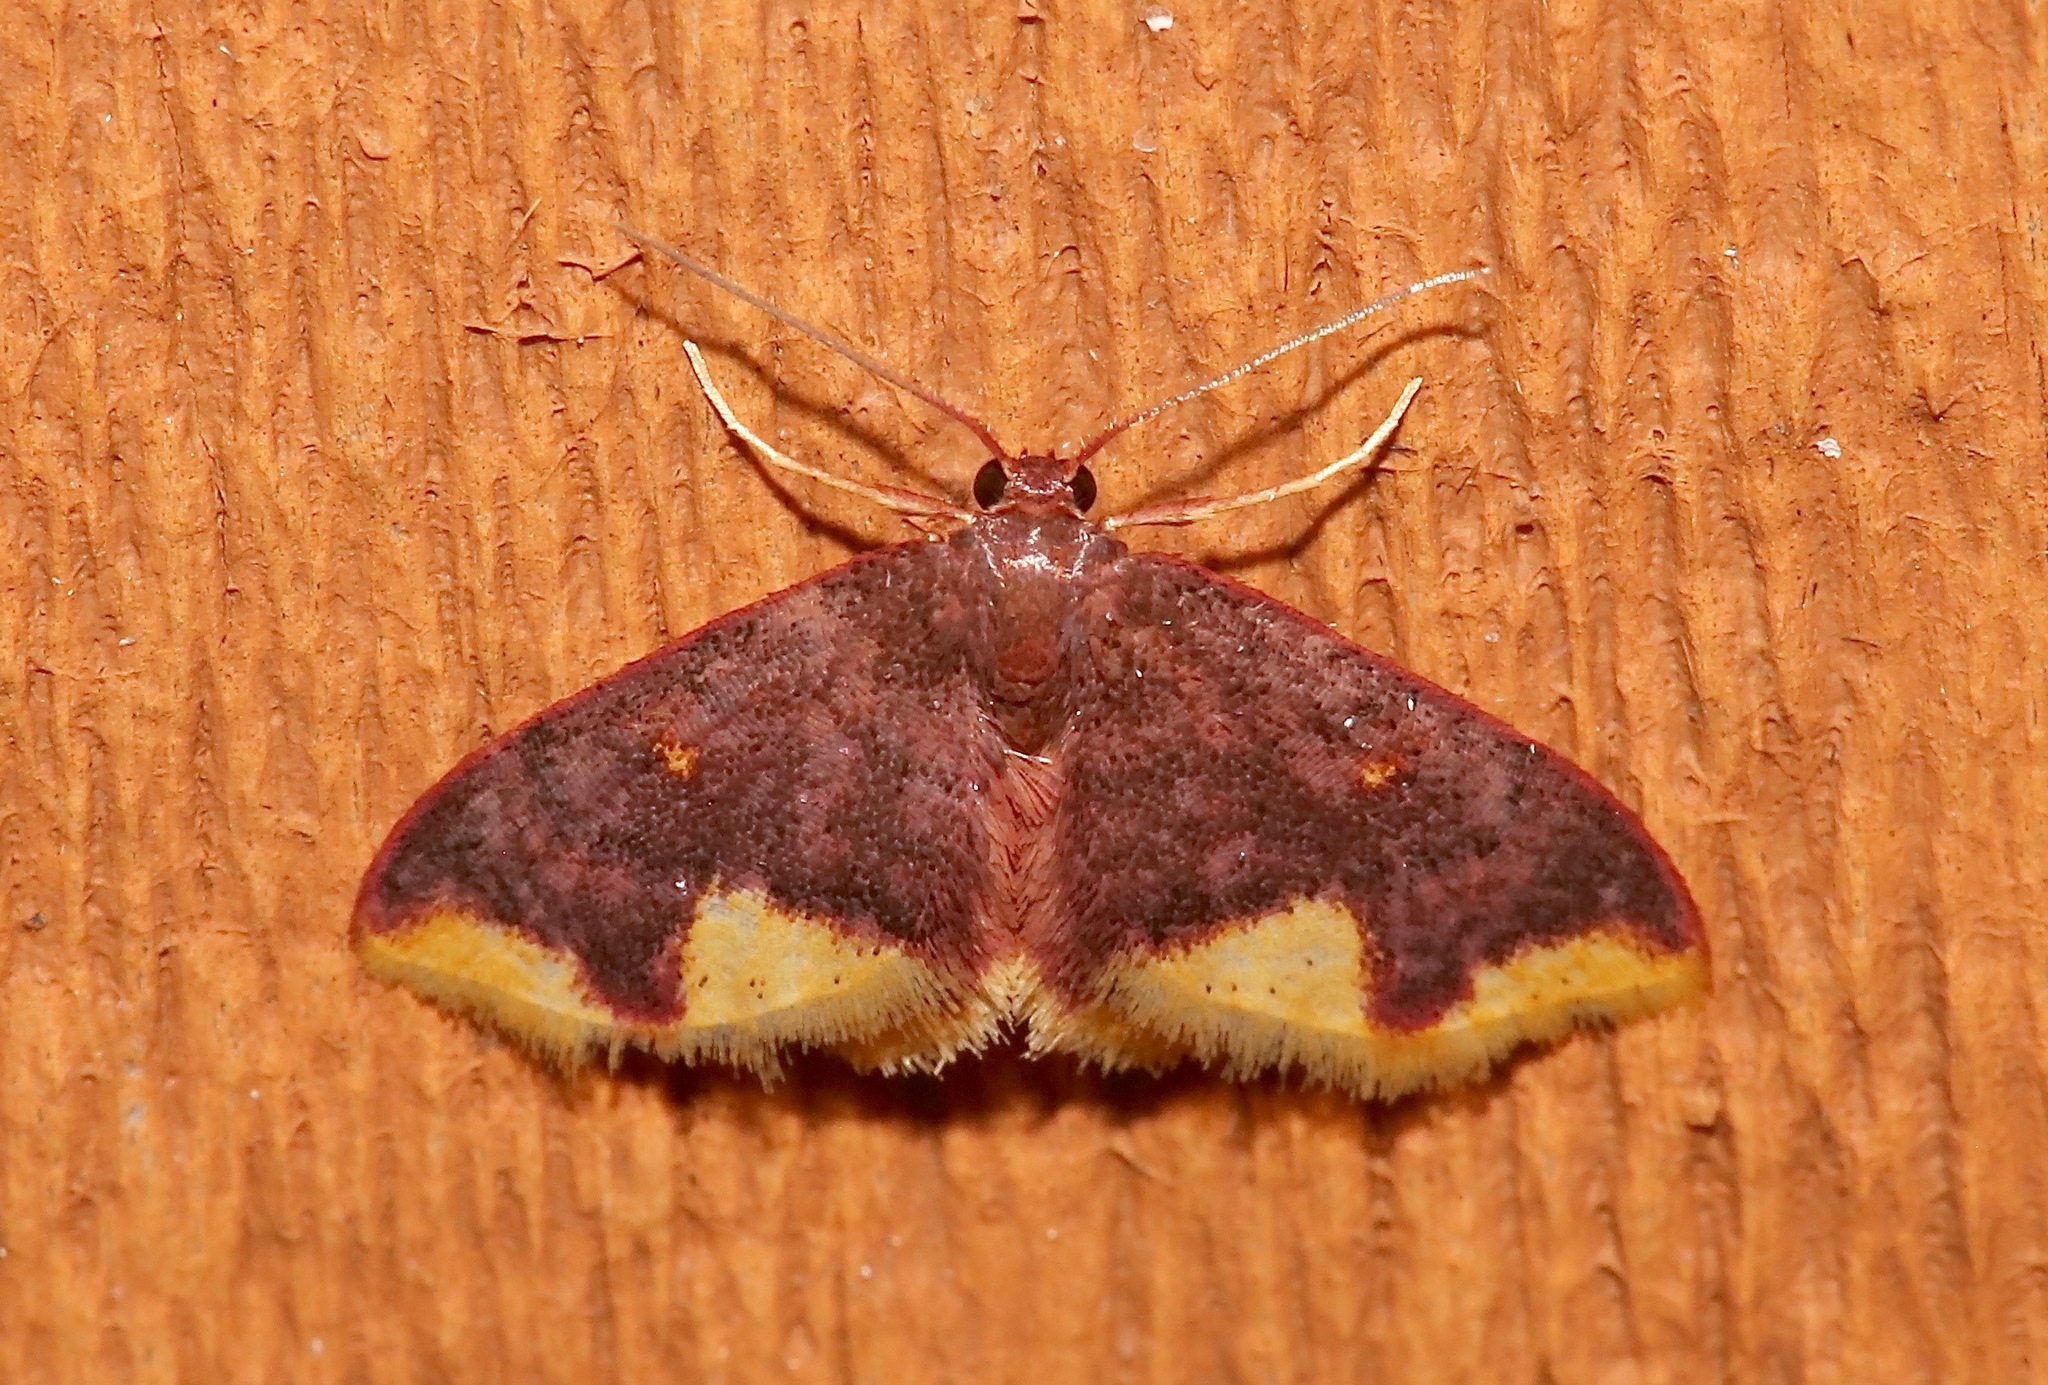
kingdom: Animalia
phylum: Arthropoda
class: Insecta
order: Lepidoptera
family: Geometridae
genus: Lophosis
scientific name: Lophosis labeculata
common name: Stained lophosis moth
